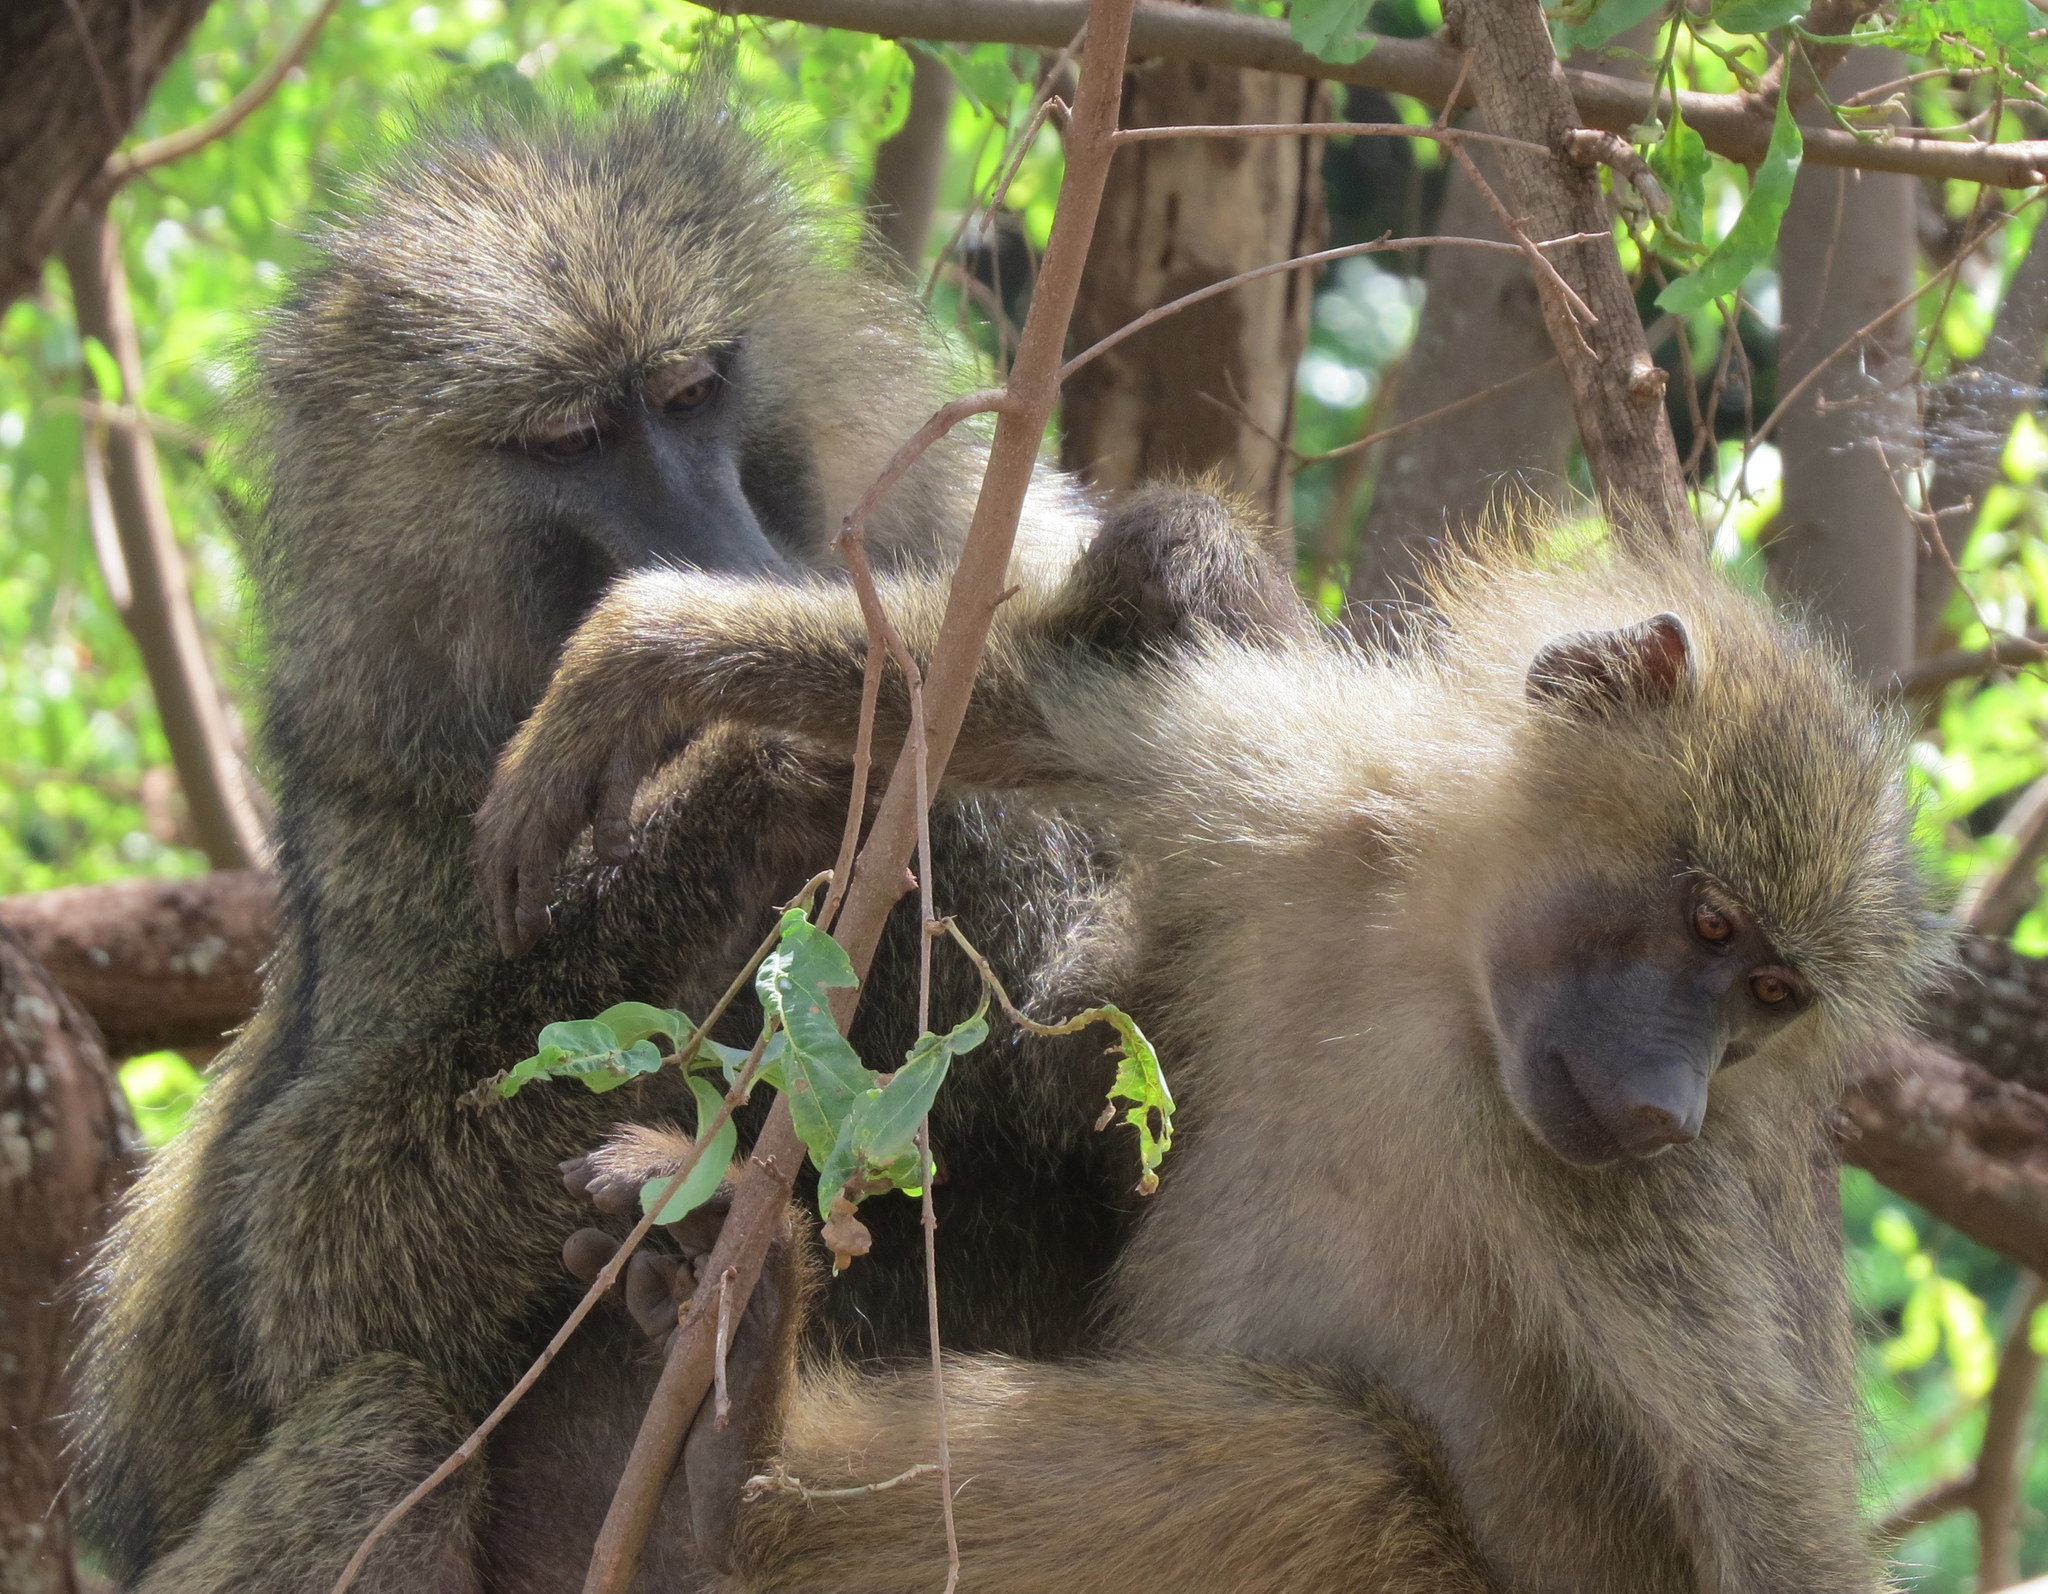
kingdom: Animalia
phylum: Chordata
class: Mammalia
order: Primates
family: Cercopithecidae
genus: Papio
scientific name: Papio anubis
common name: Olive baboon
